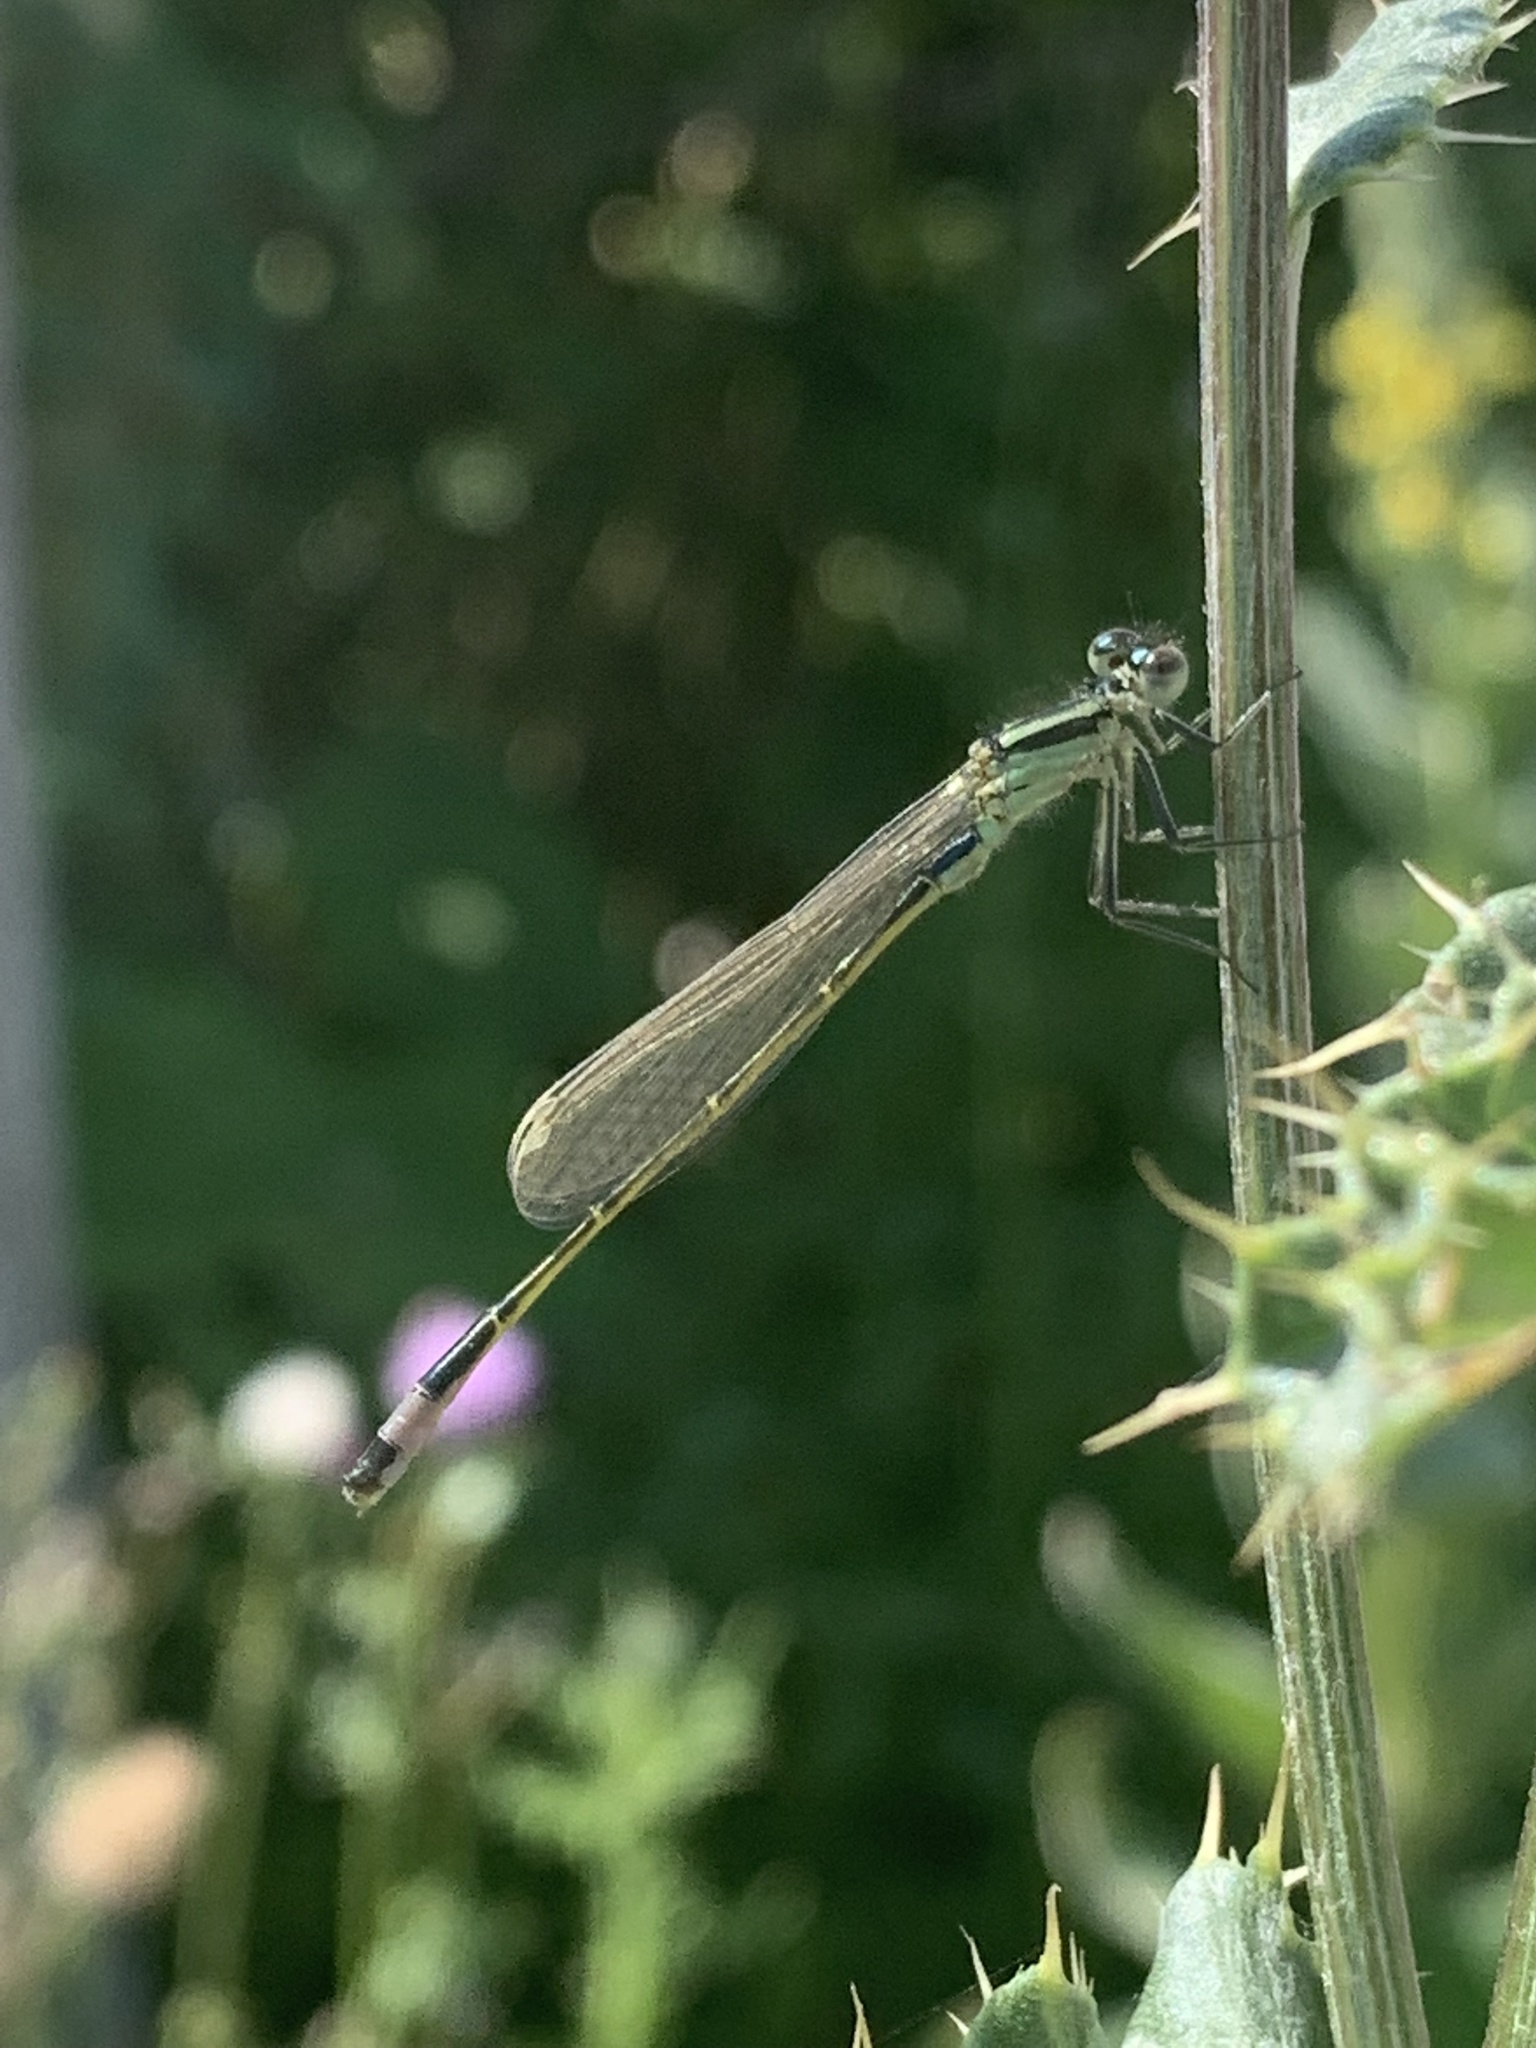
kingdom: Animalia
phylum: Arthropoda
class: Insecta
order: Odonata
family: Coenagrionidae
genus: Ischnura
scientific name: Ischnura elegans
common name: Blue-tailed damselfly
